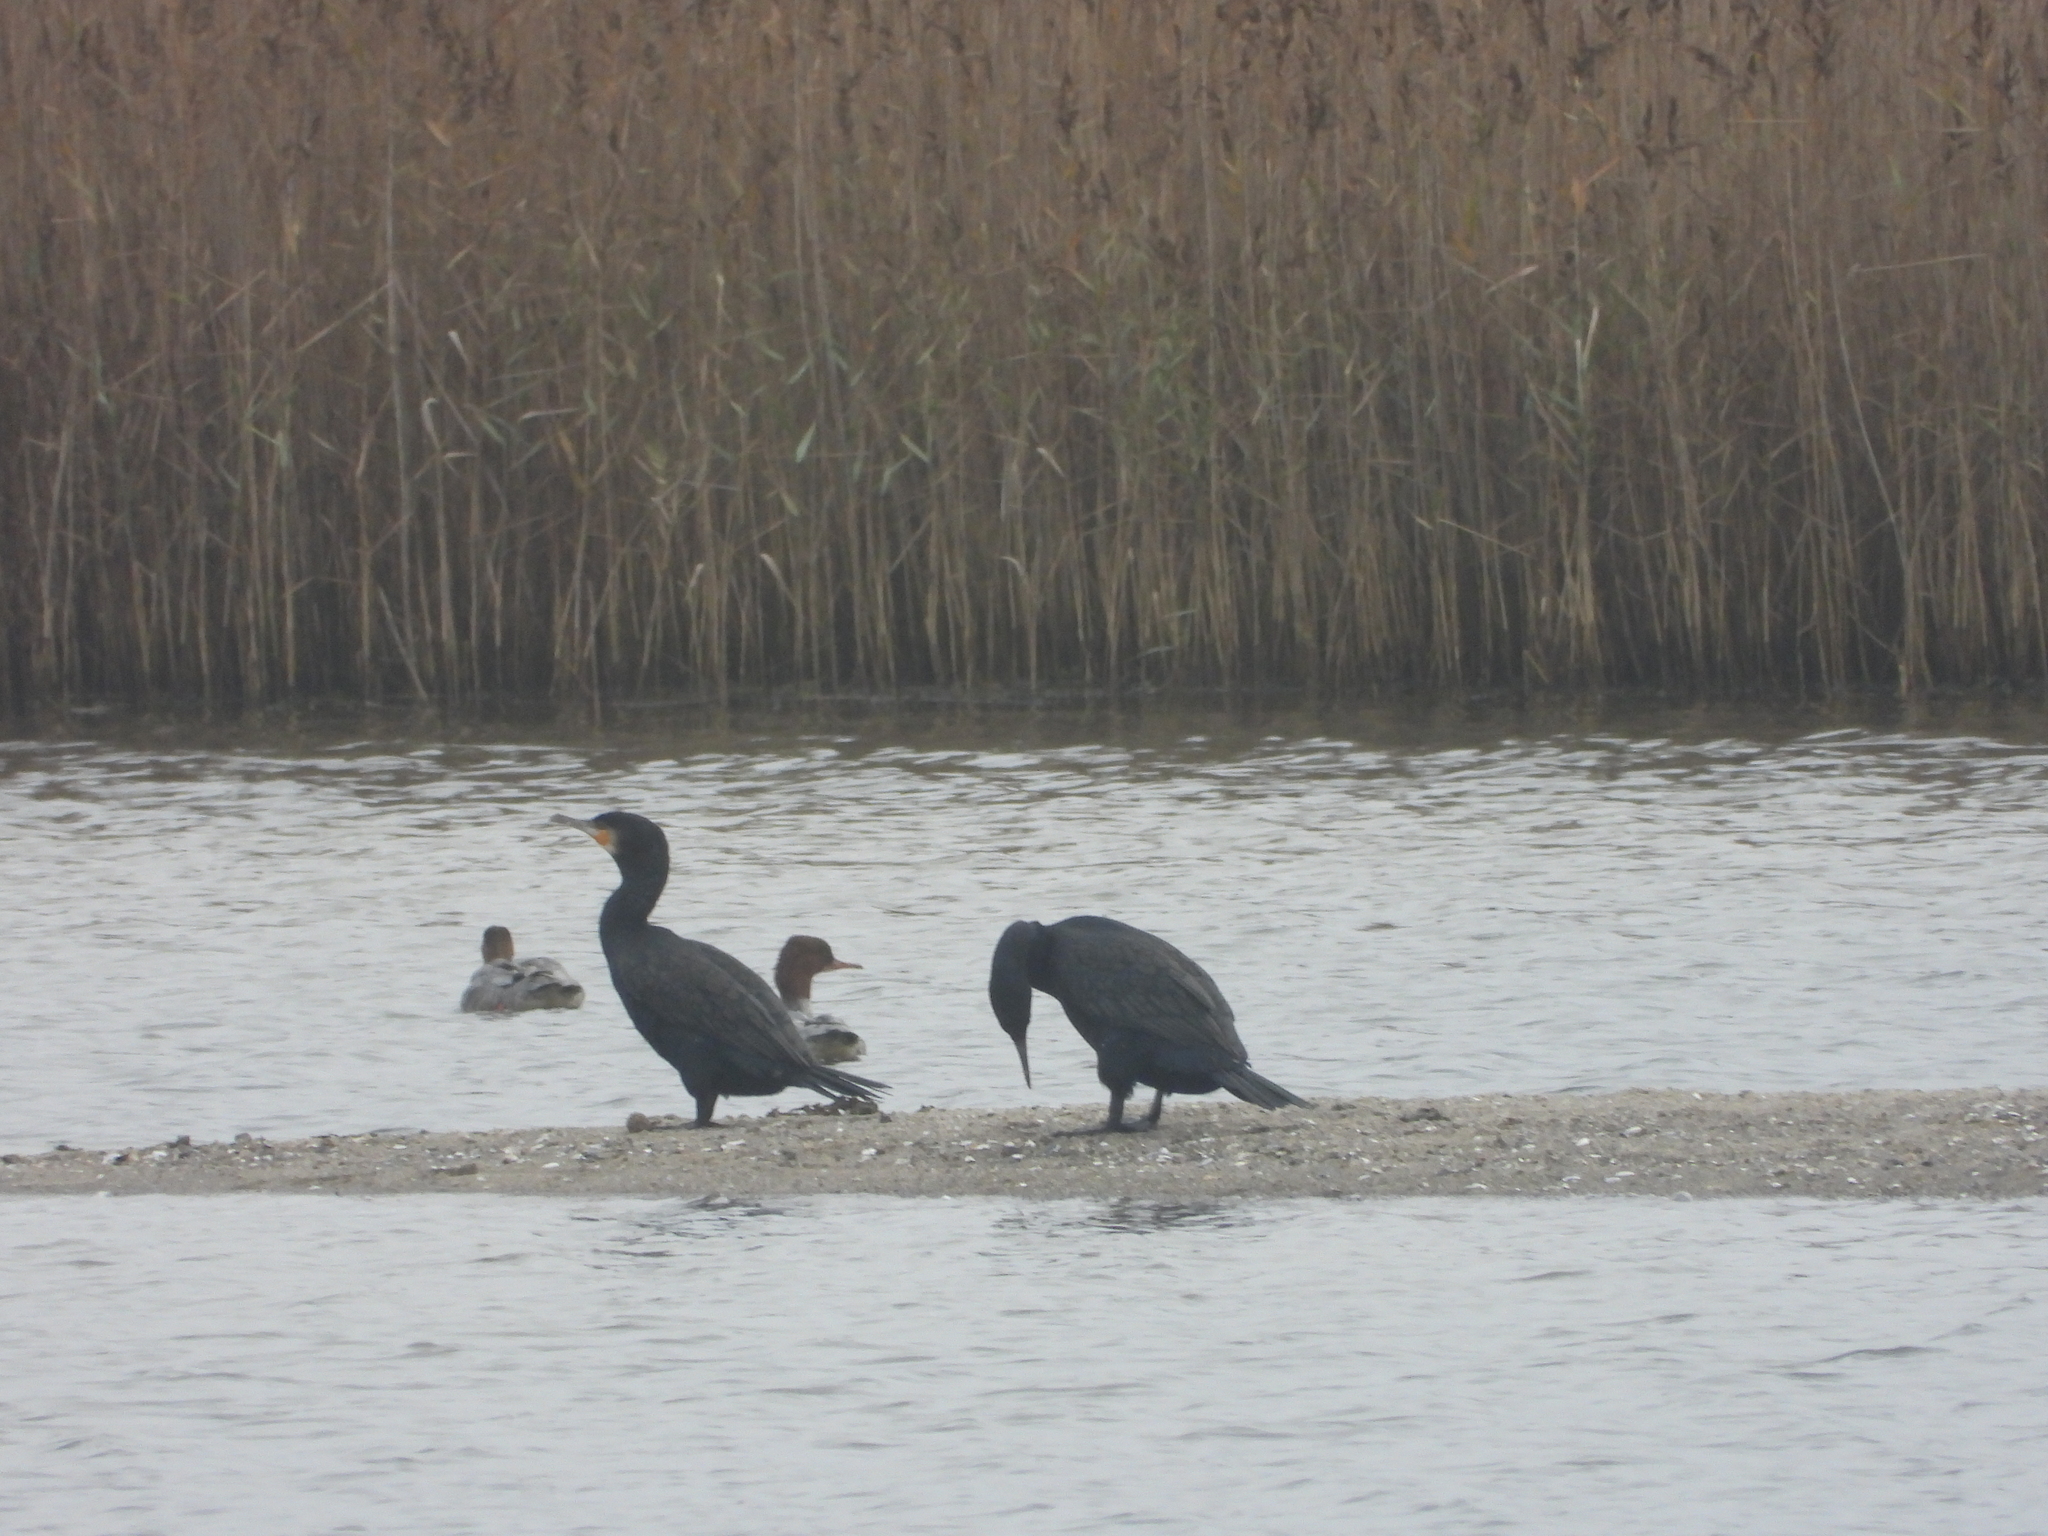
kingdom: Animalia
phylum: Chordata
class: Aves
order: Suliformes
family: Phalacrocoracidae
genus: Phalacrocorax
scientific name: Phalacrocorax carbo
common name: Great cormorant
